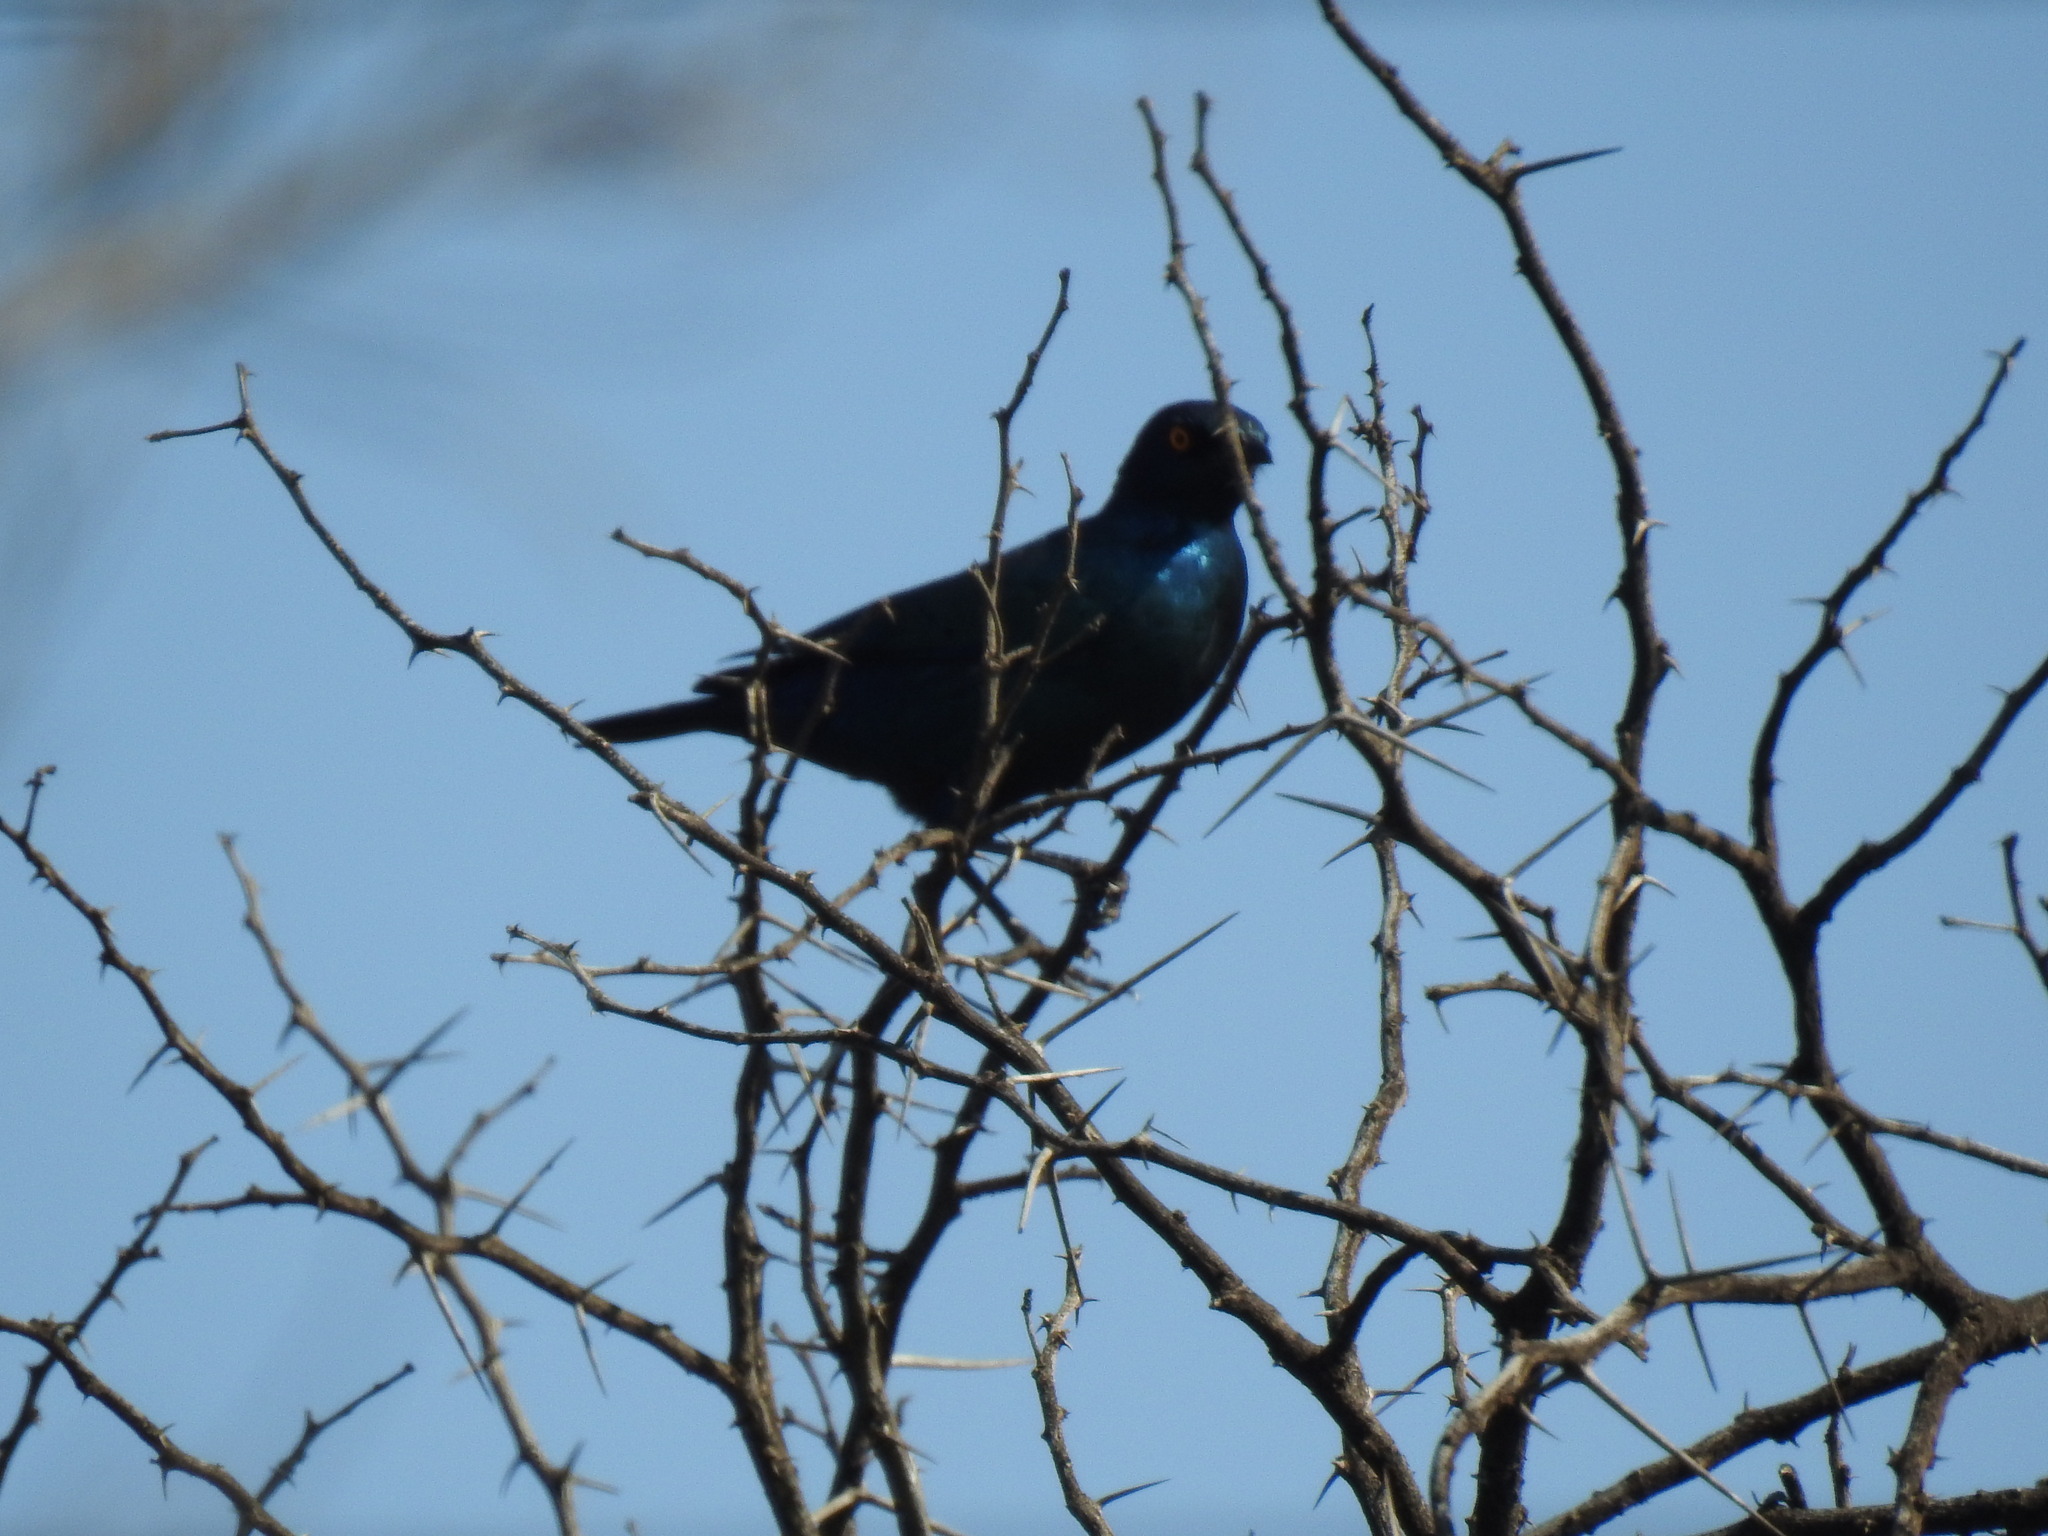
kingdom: Animalia
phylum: Chordata
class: Aves
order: Passeriformes
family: Sturnidae
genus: Lamprotornis
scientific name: Lamprotornis nitens
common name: Cape starling
